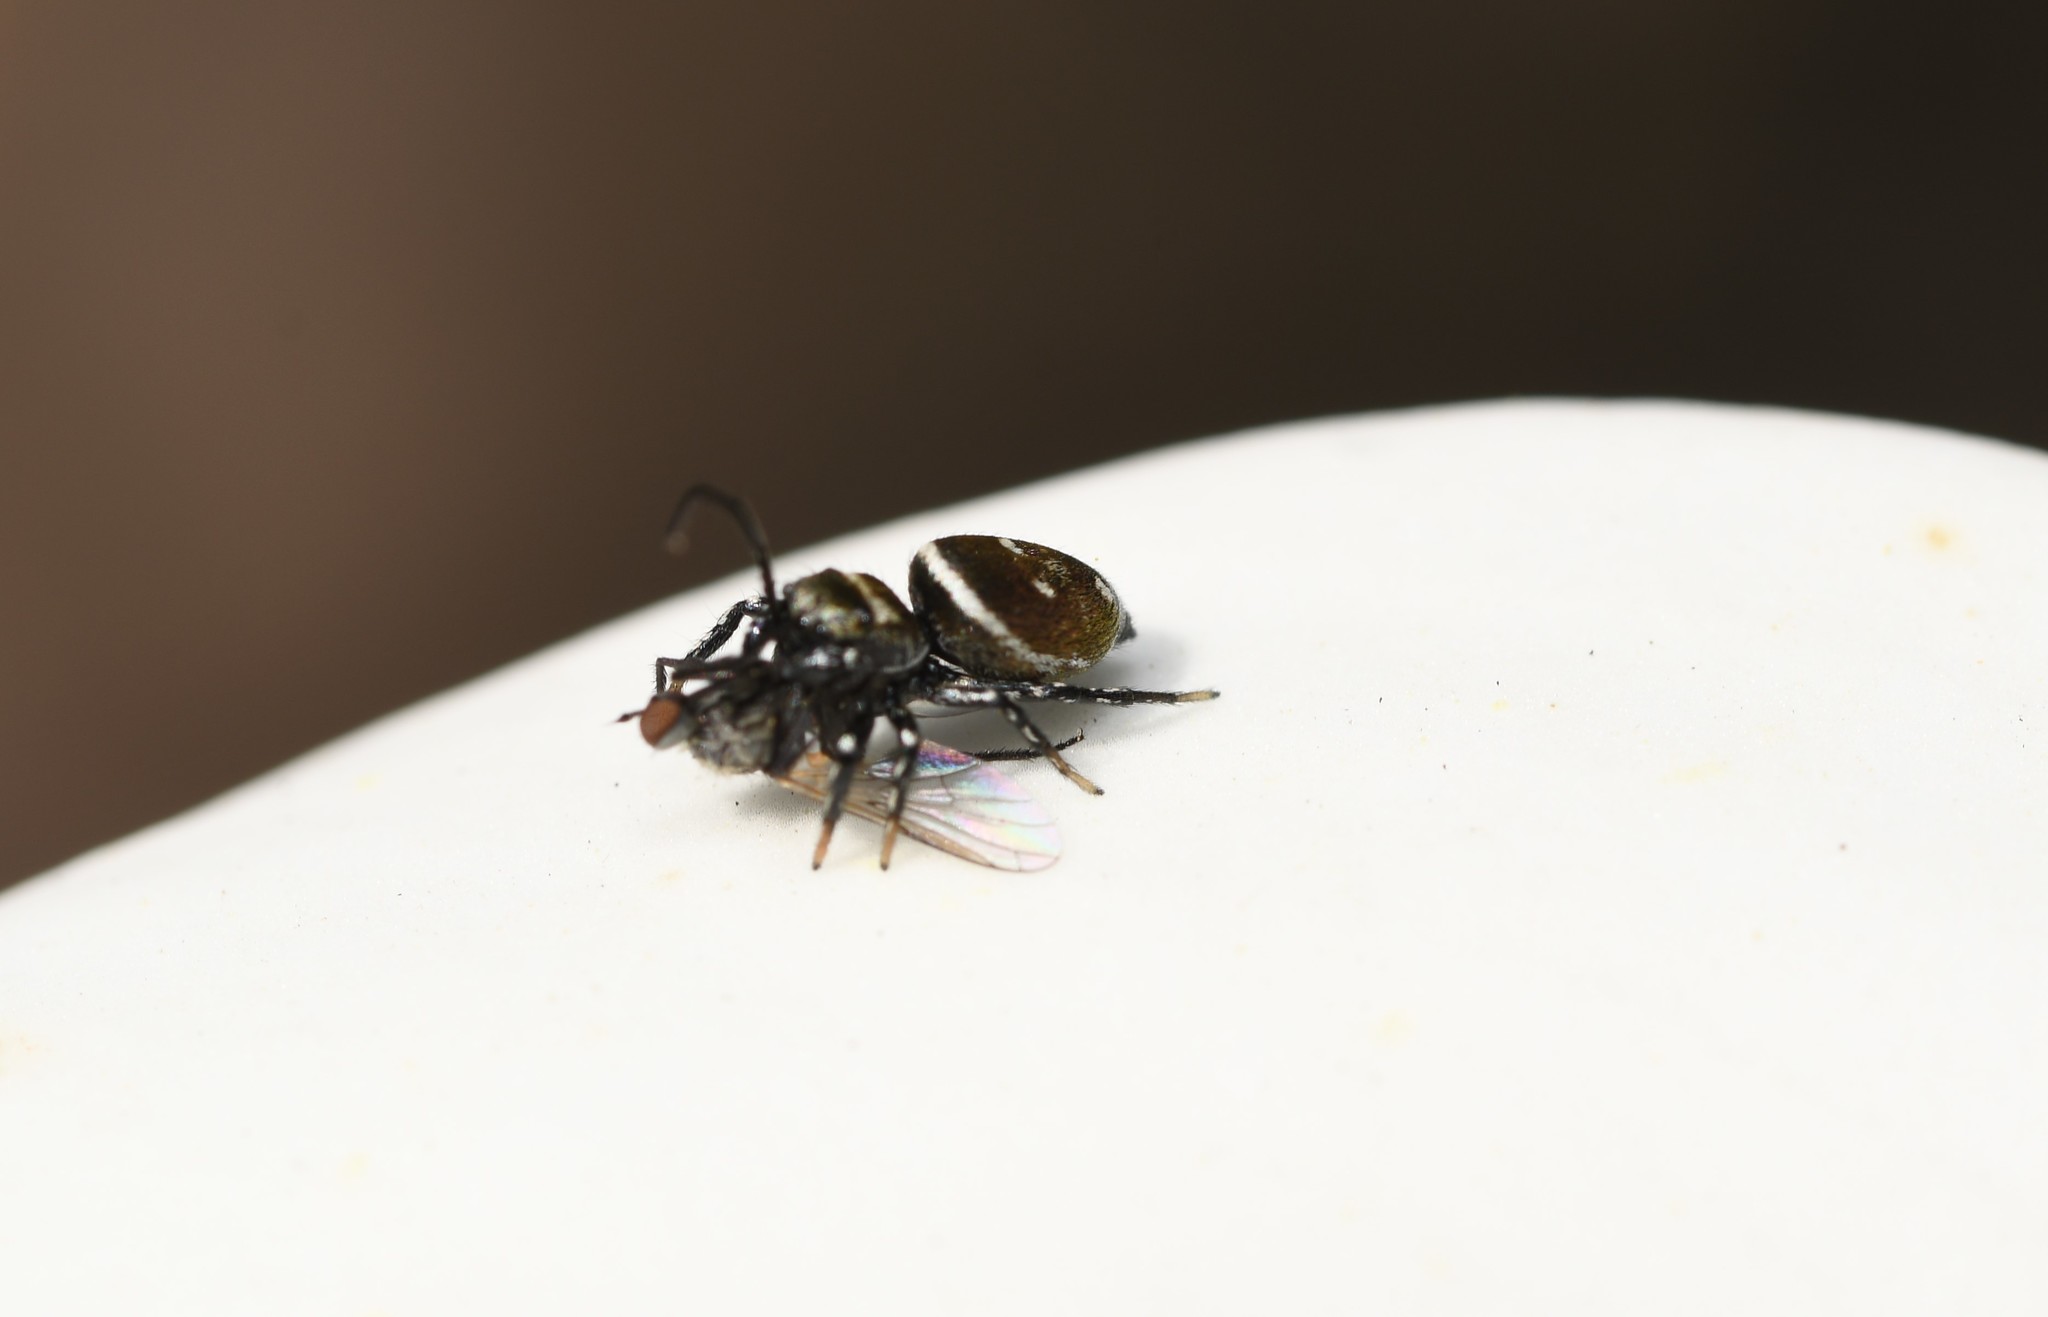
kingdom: Animalia
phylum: Arthropoda
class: Arachnida
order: Araneae
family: Salticidae
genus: Heliophanus
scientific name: Heliophanus kochii
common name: Sun jumping spider
